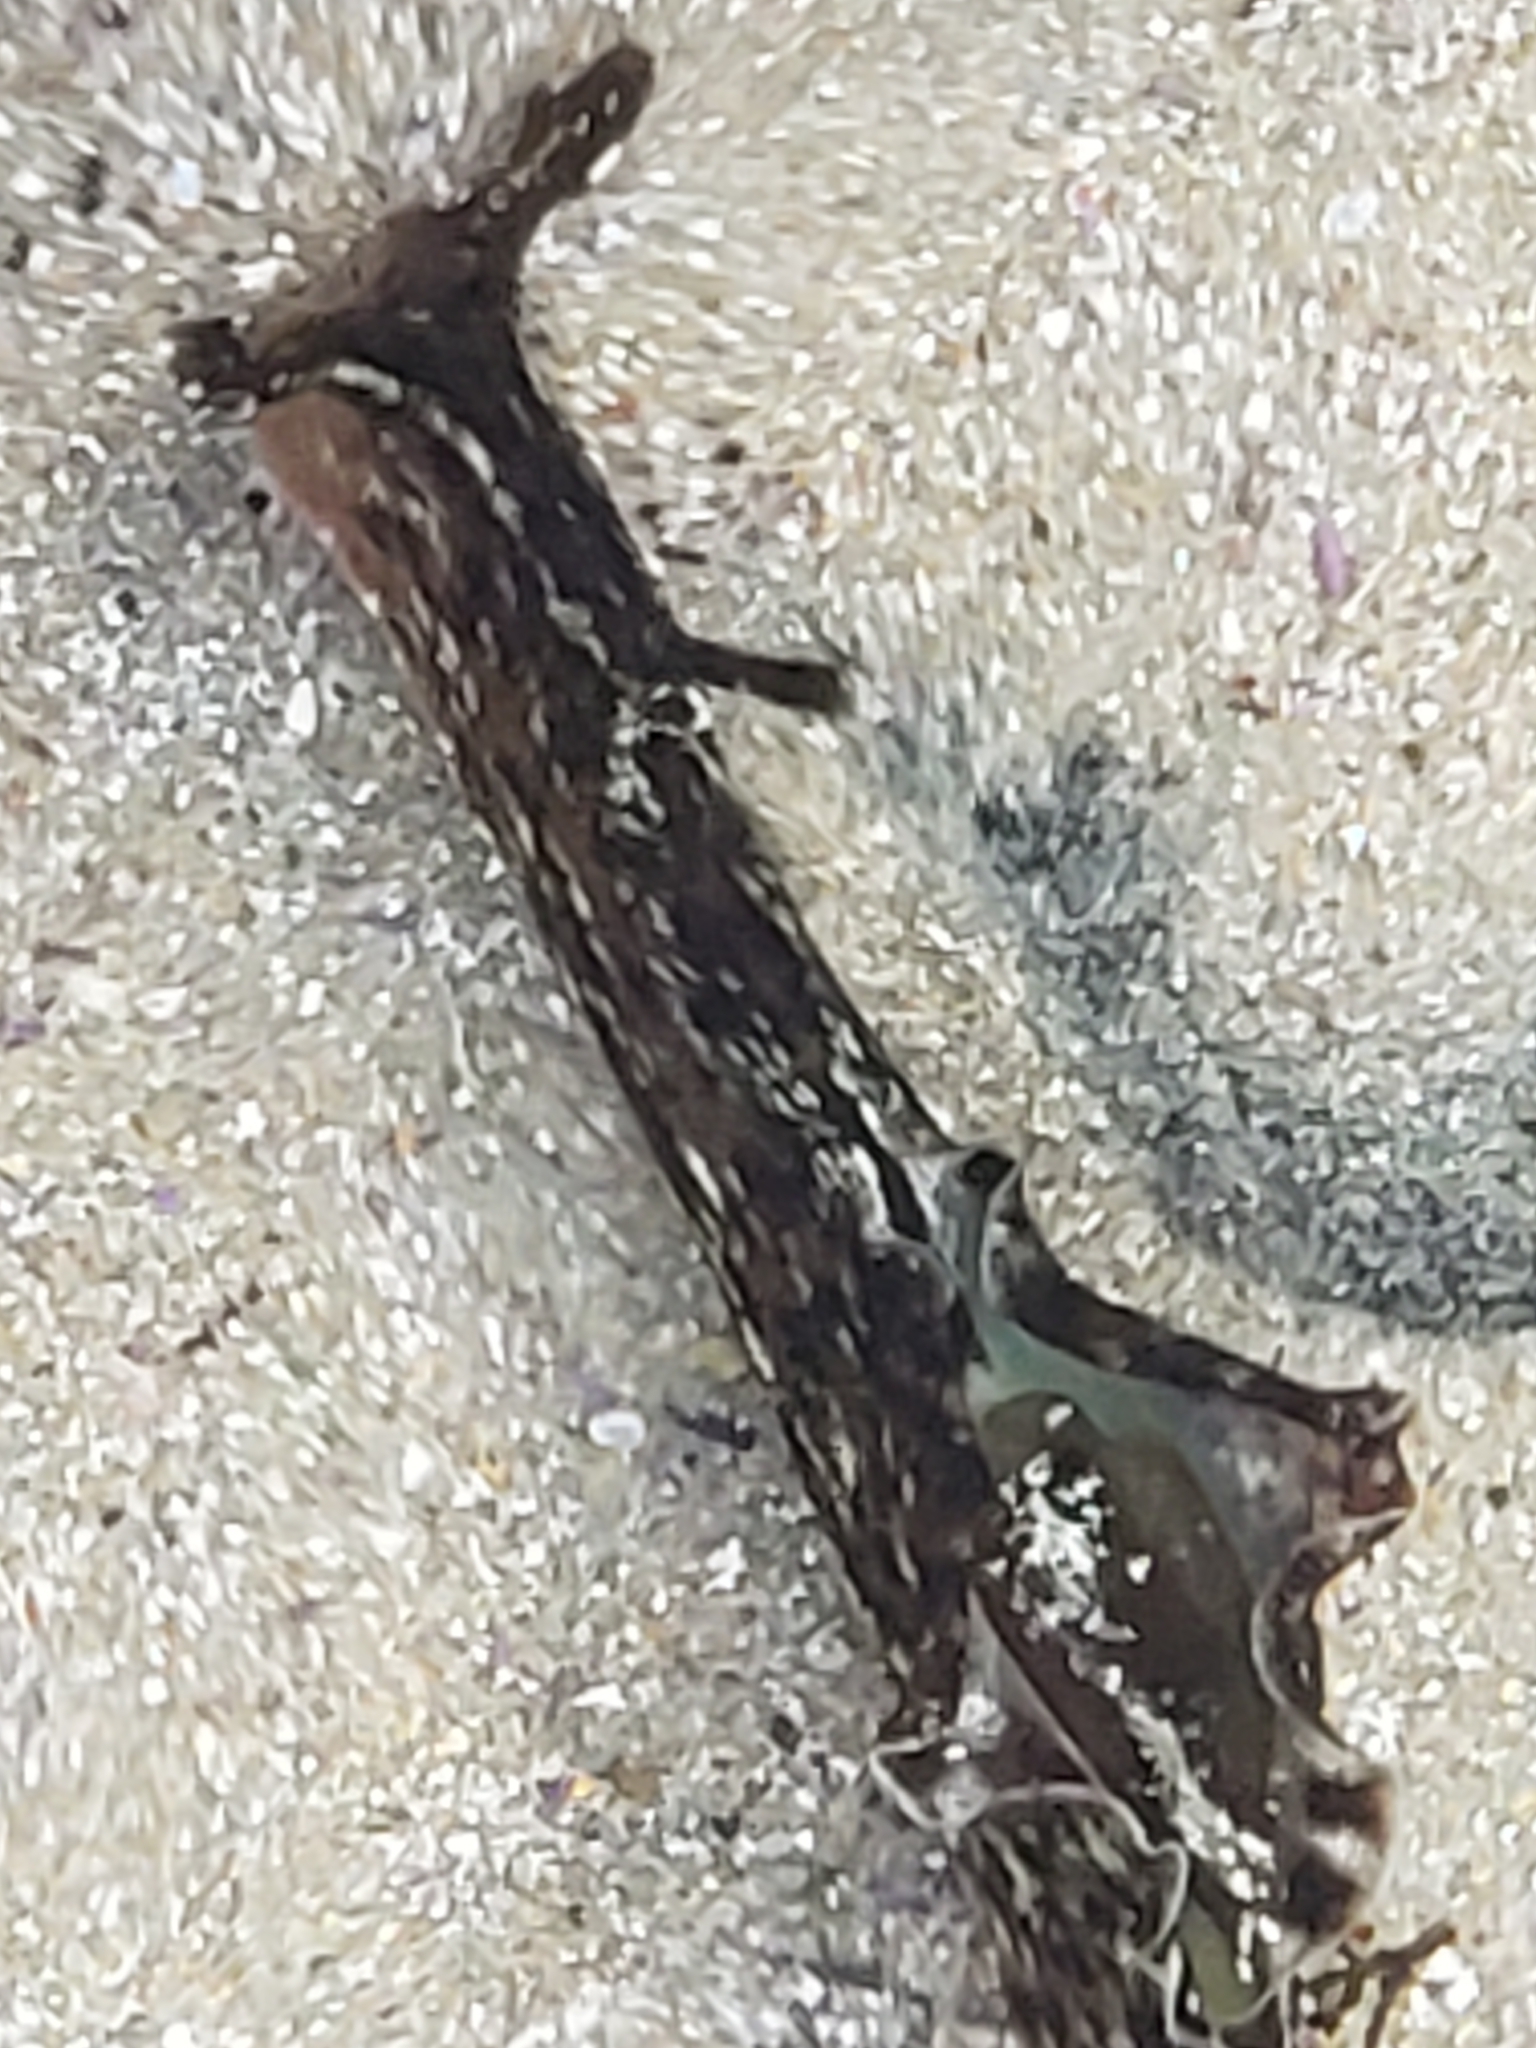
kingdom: Animalia
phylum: Mollusca
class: Gastropoda
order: Aplysiida
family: Aplysiidae
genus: Aplysia
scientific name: Aplysia californica
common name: California seahare
